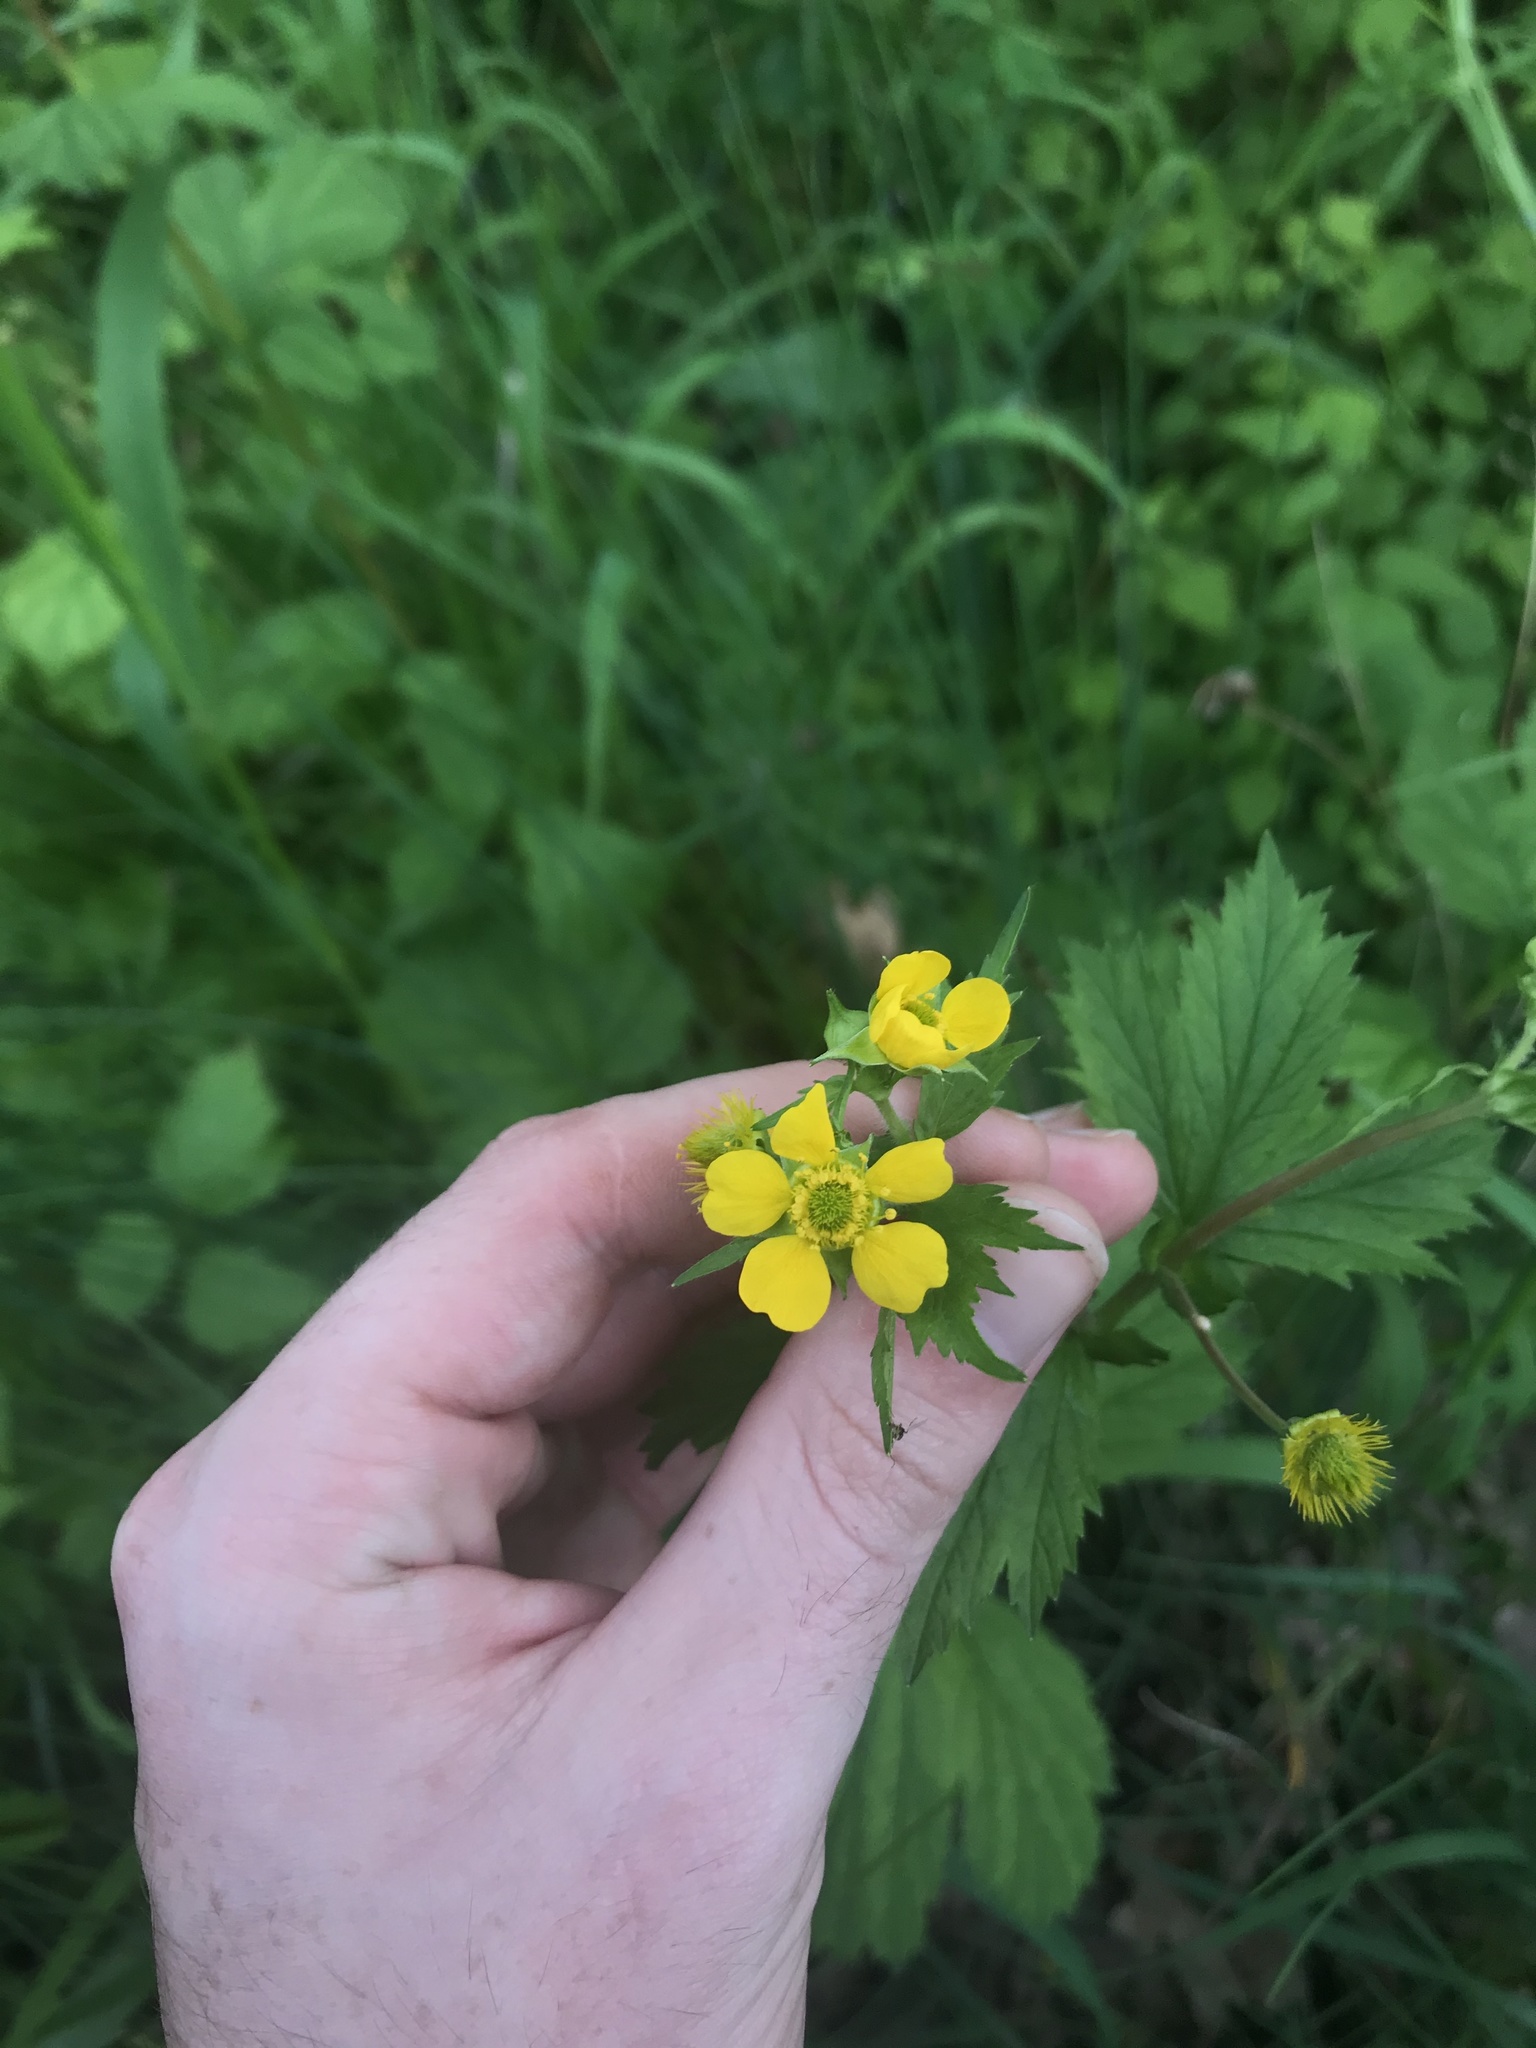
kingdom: Plantae
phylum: Tracheophyta
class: Magnoliopsida
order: Rosales
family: Rosaceae
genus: Geum
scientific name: Geum macrophyllum
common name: Large-leaved avens
